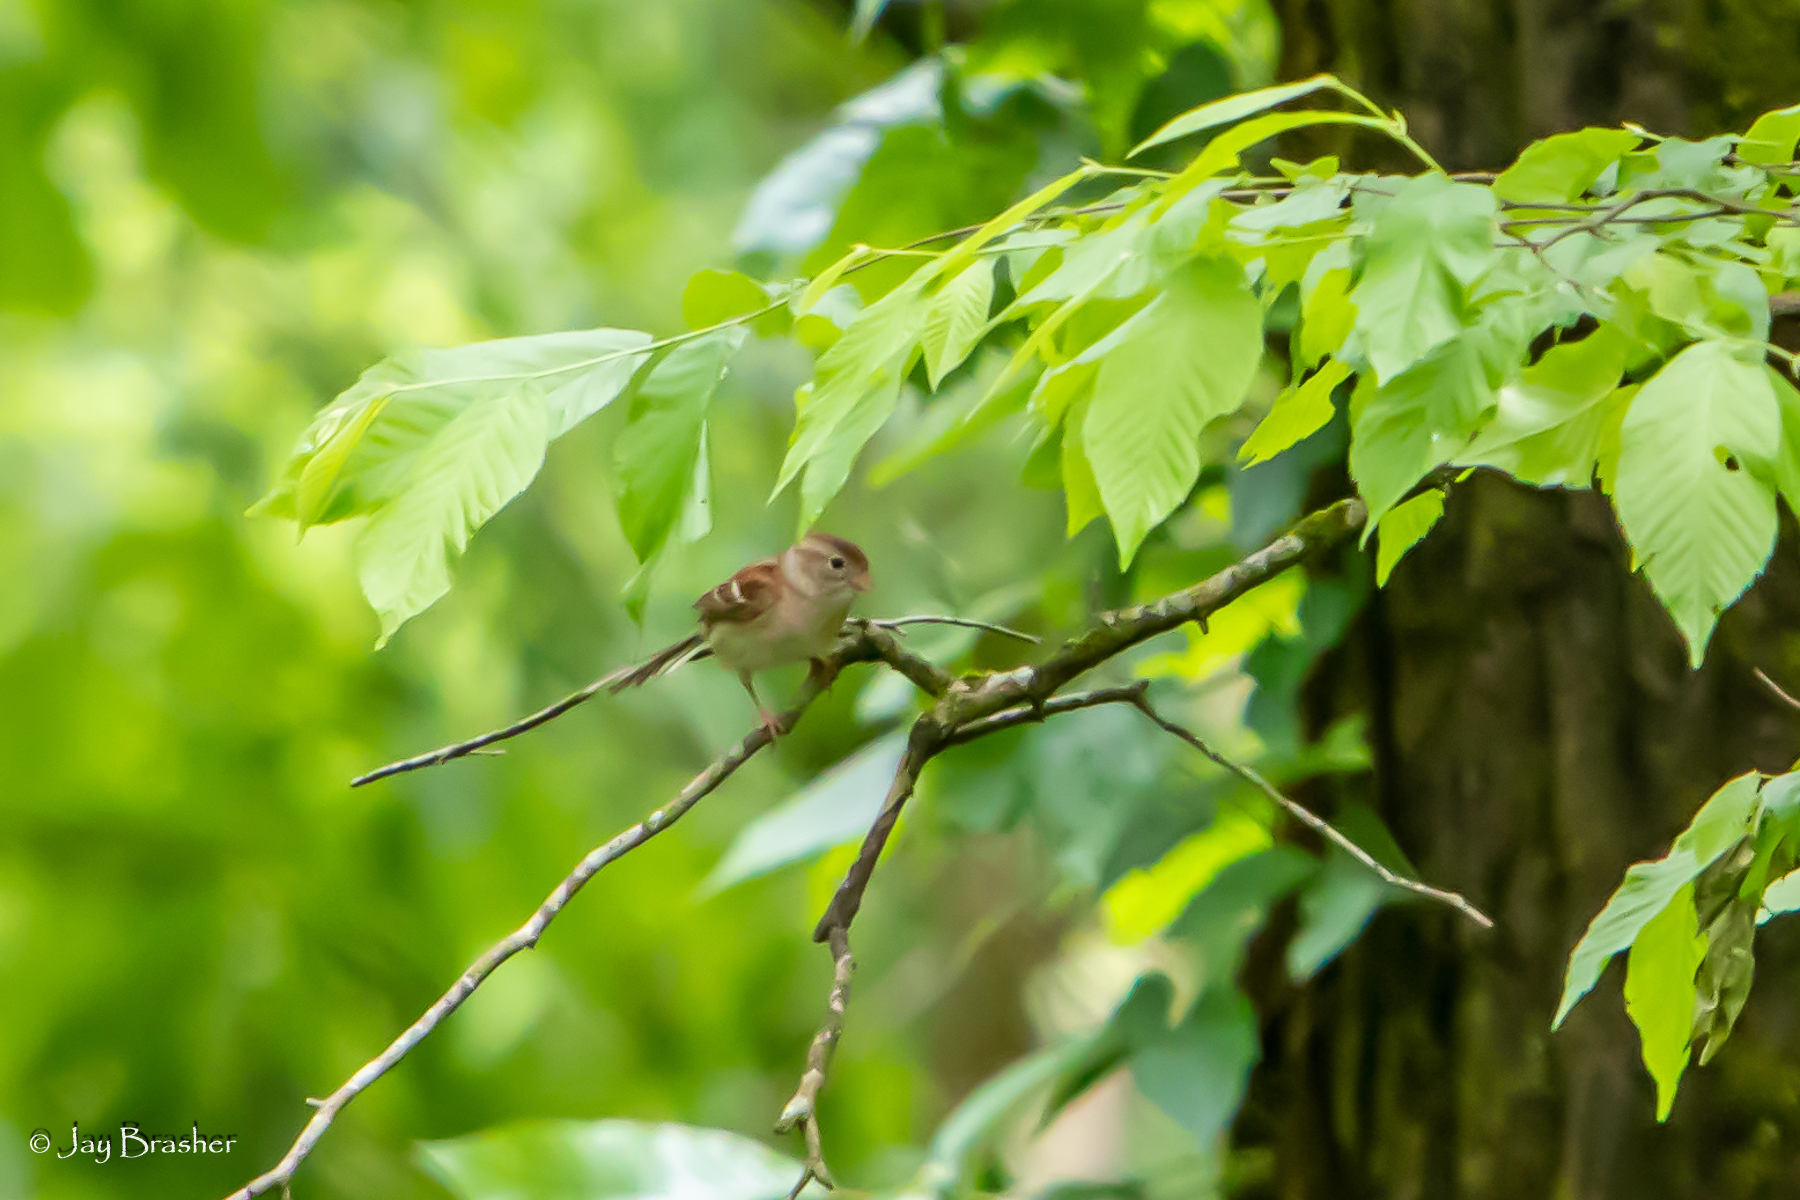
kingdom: Animalia
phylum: Chordata
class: Aves
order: Passeriformes
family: Passerellidae
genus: Spizella
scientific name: Spizella pusilla
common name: Field sparrow
